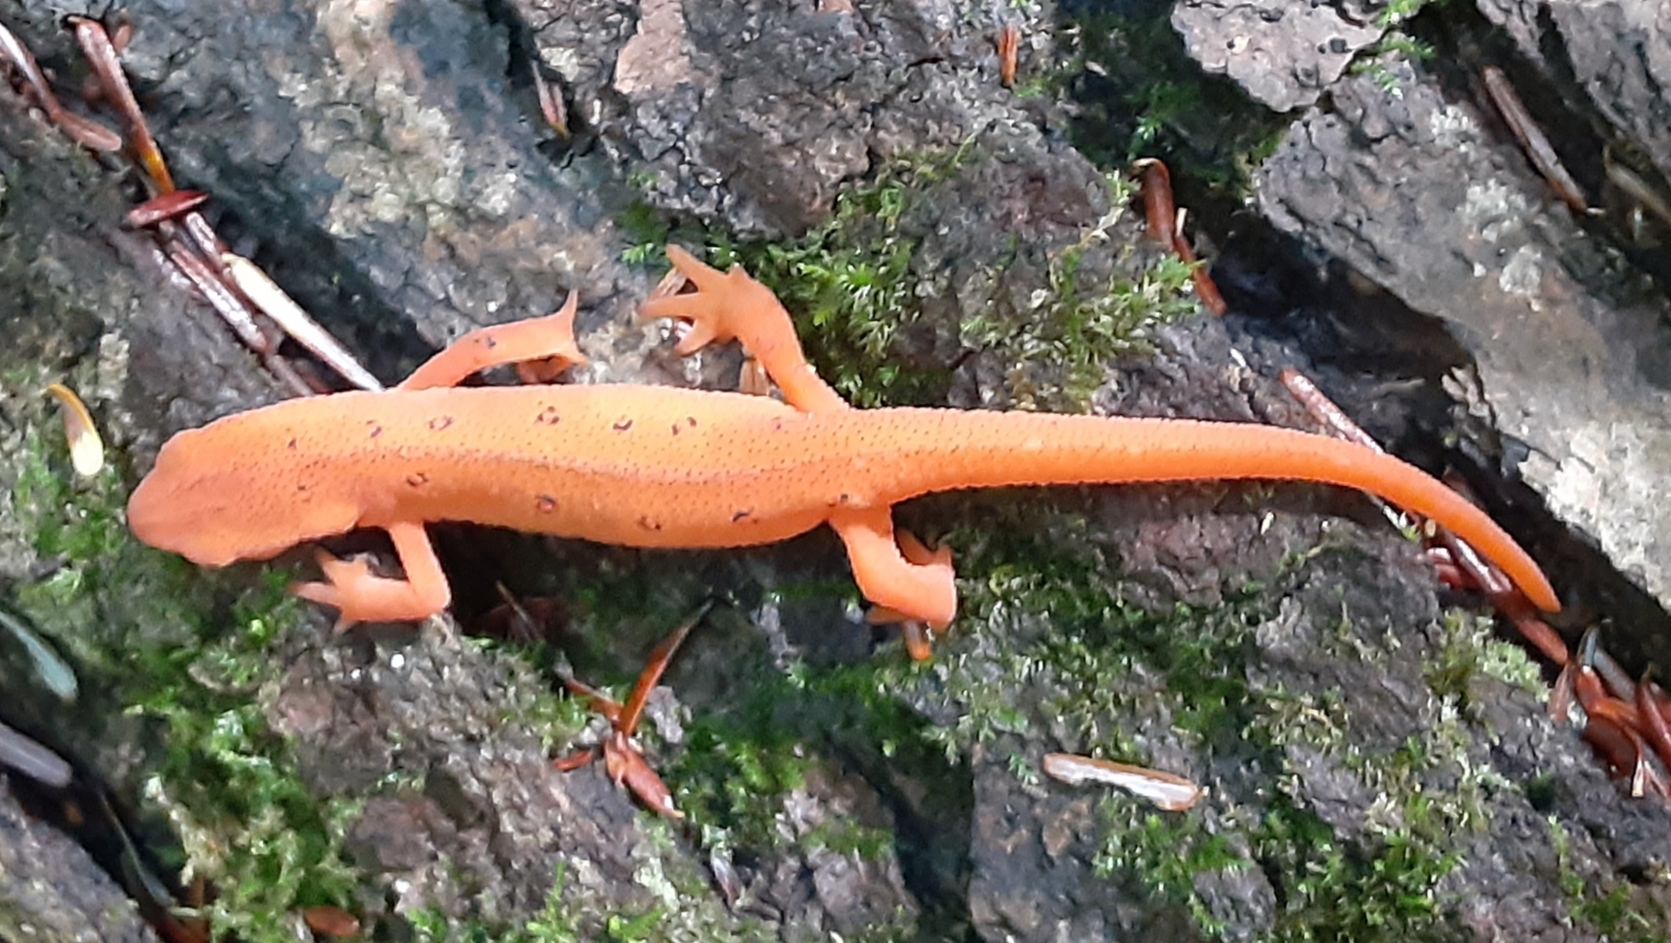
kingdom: Animalia
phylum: Chordata
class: Amphibia
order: Caudata
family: Salamandridae
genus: Notophthalmus
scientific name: Notophthalmus viridescens
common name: Eastern newt
